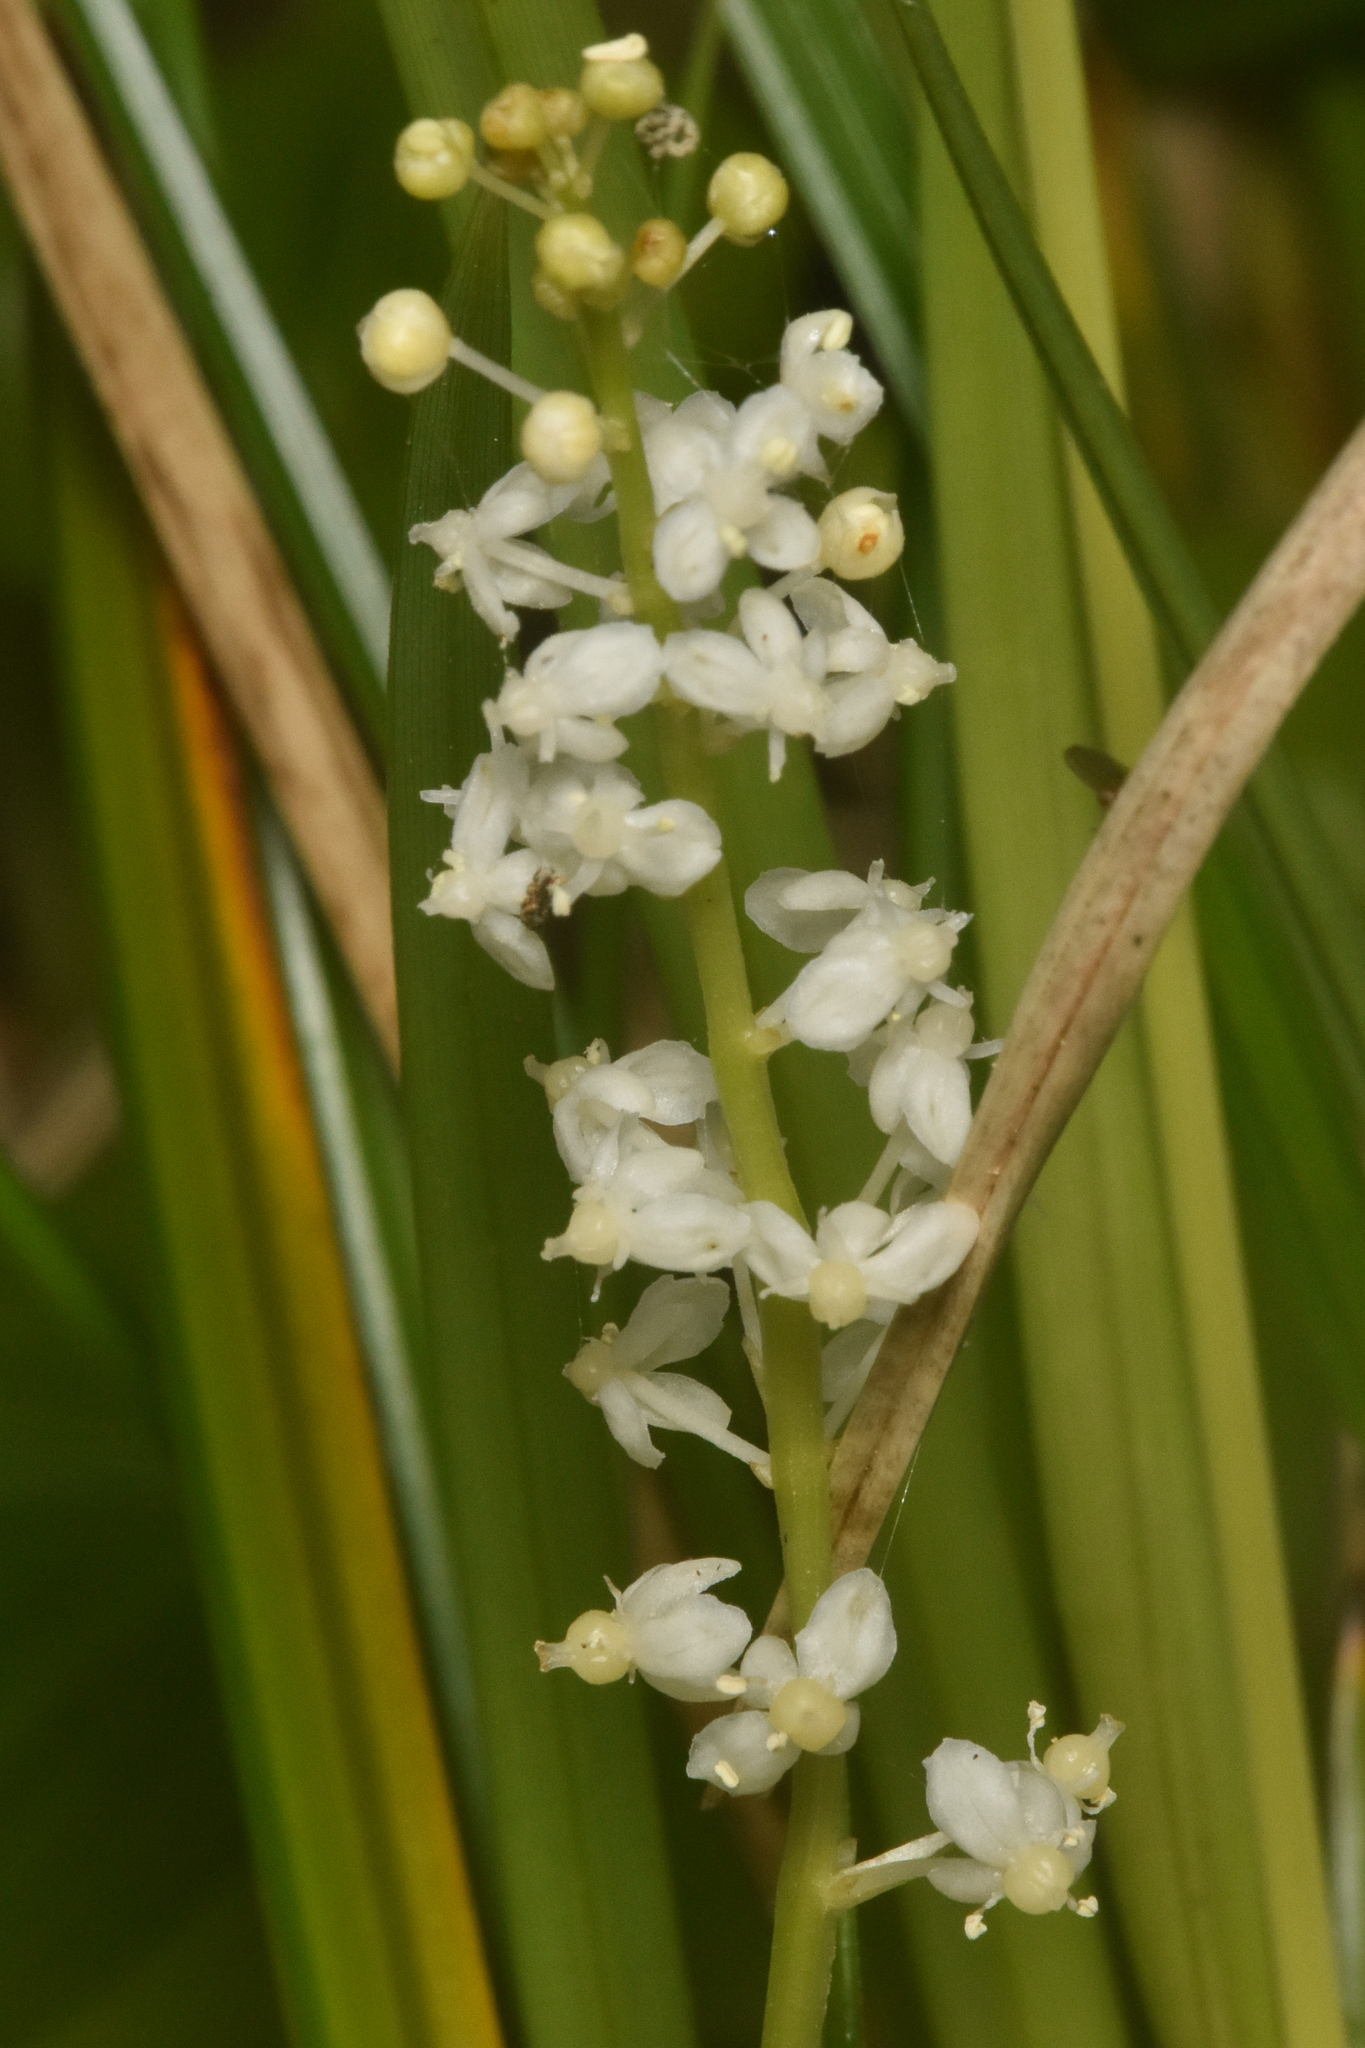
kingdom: Plantae
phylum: Tracheophyta
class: Liliopsida
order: Asparagales
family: Asparagaceae
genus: Maianthemum
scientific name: Maianthemum dilatatum
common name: False lily-of-the-valley
